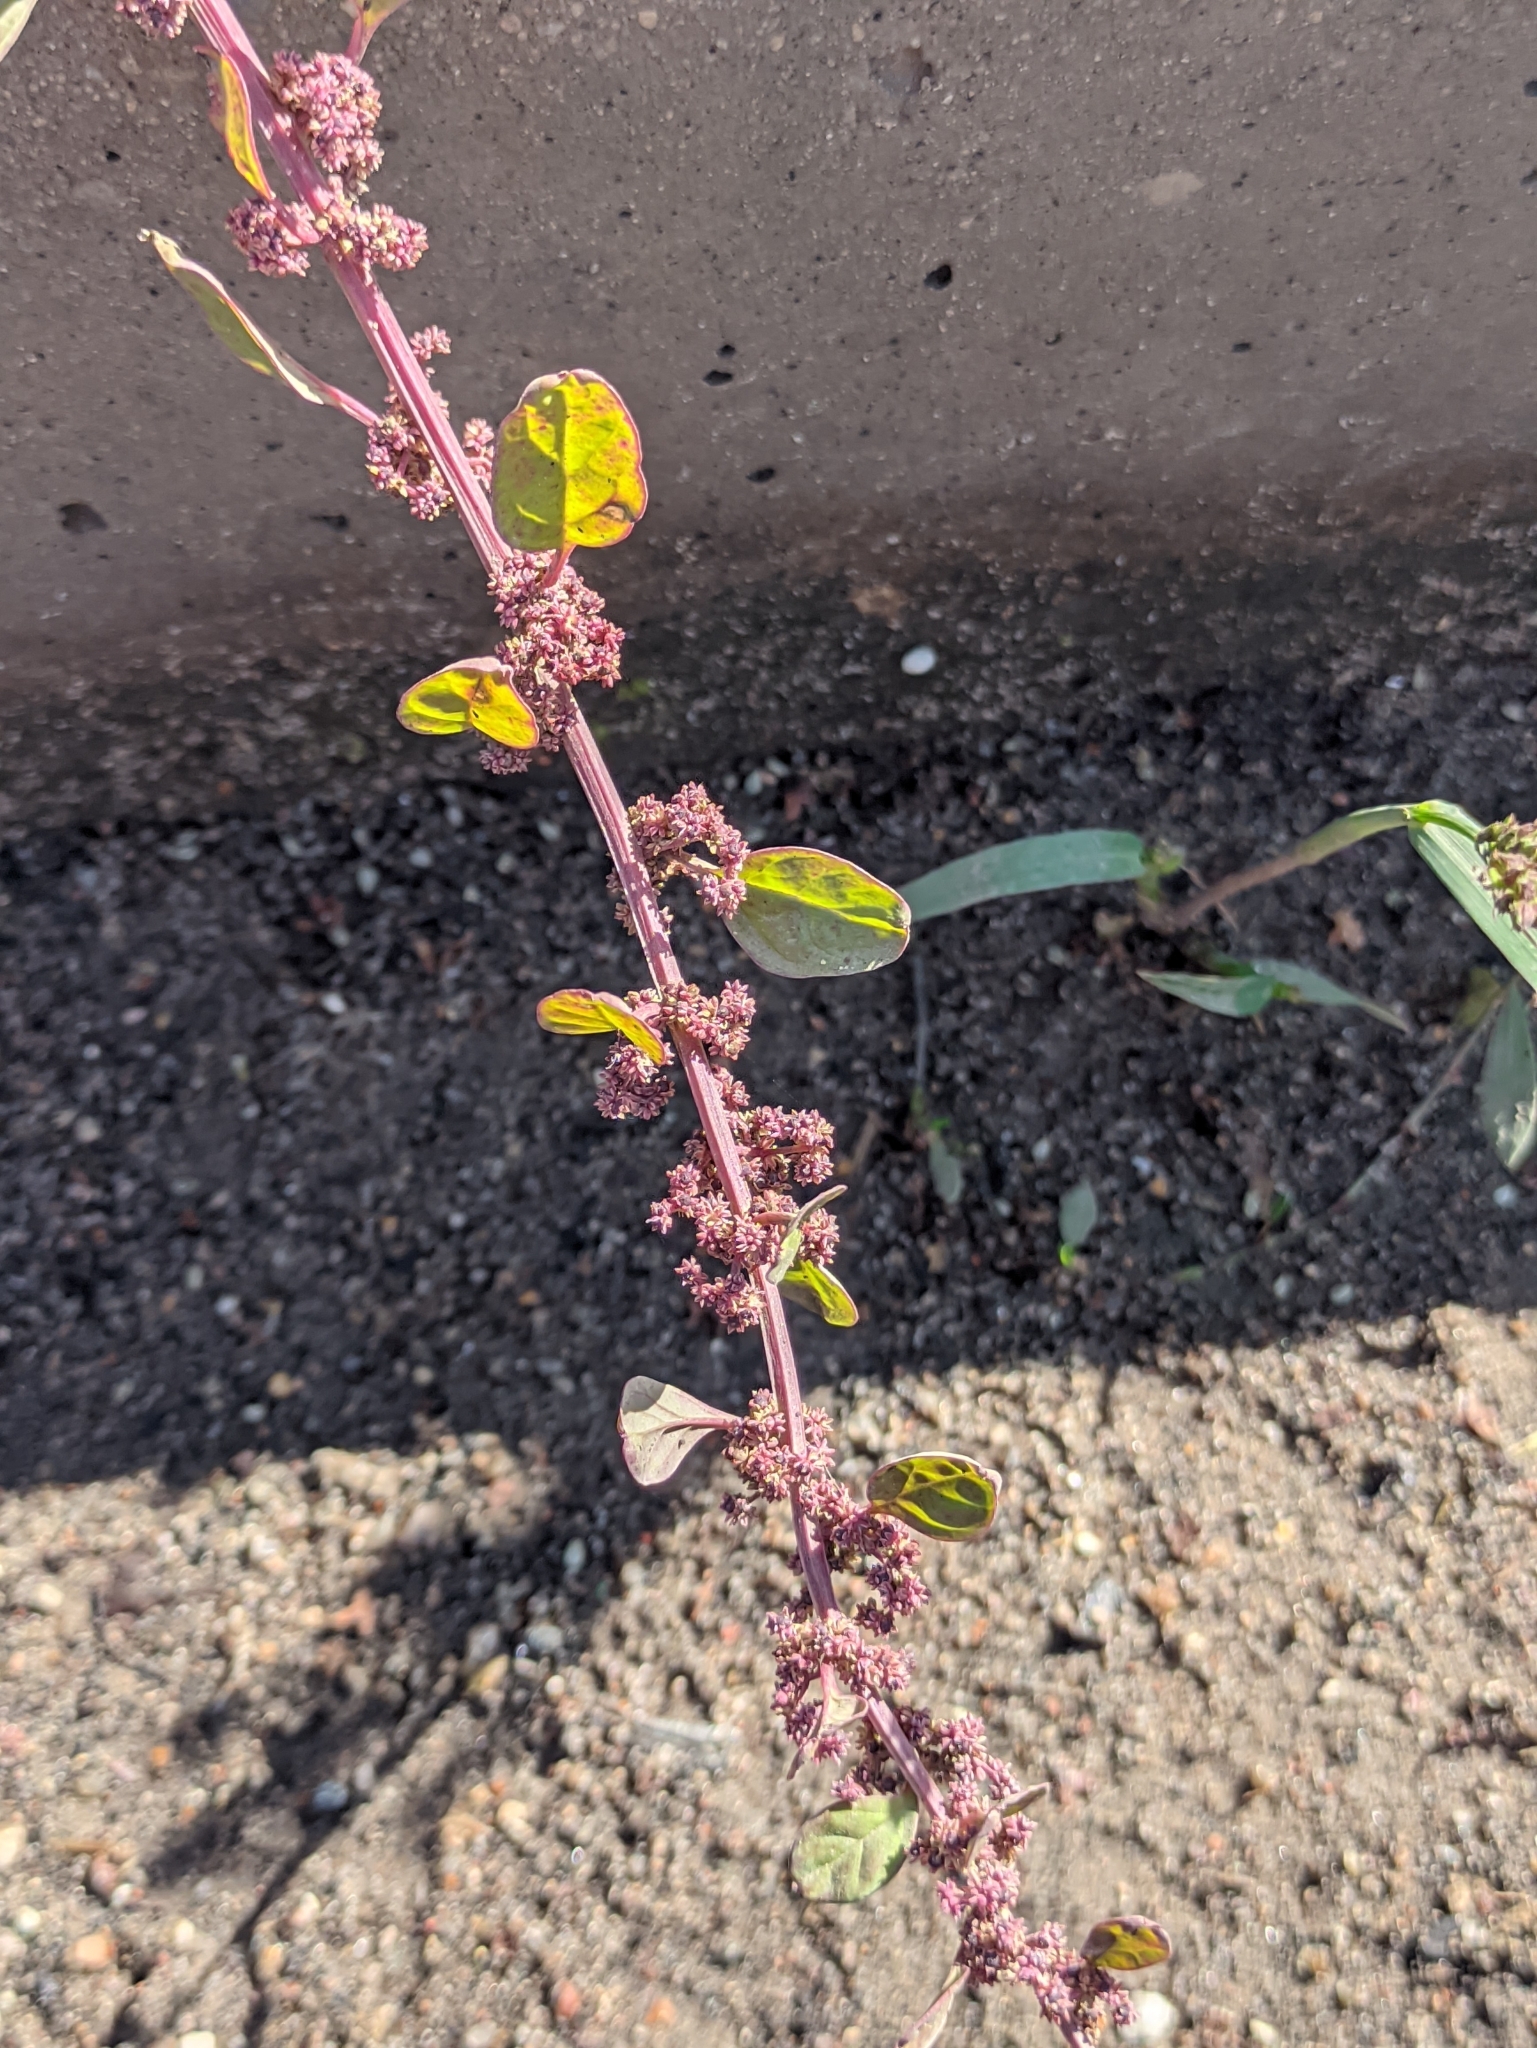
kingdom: Plantae
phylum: Tracheophyta
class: Magnoliopsida
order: Caryophyllales
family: Amaranthaceae
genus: Lipandra
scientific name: Lipandra polysperma
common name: Many-seed goosefoot
